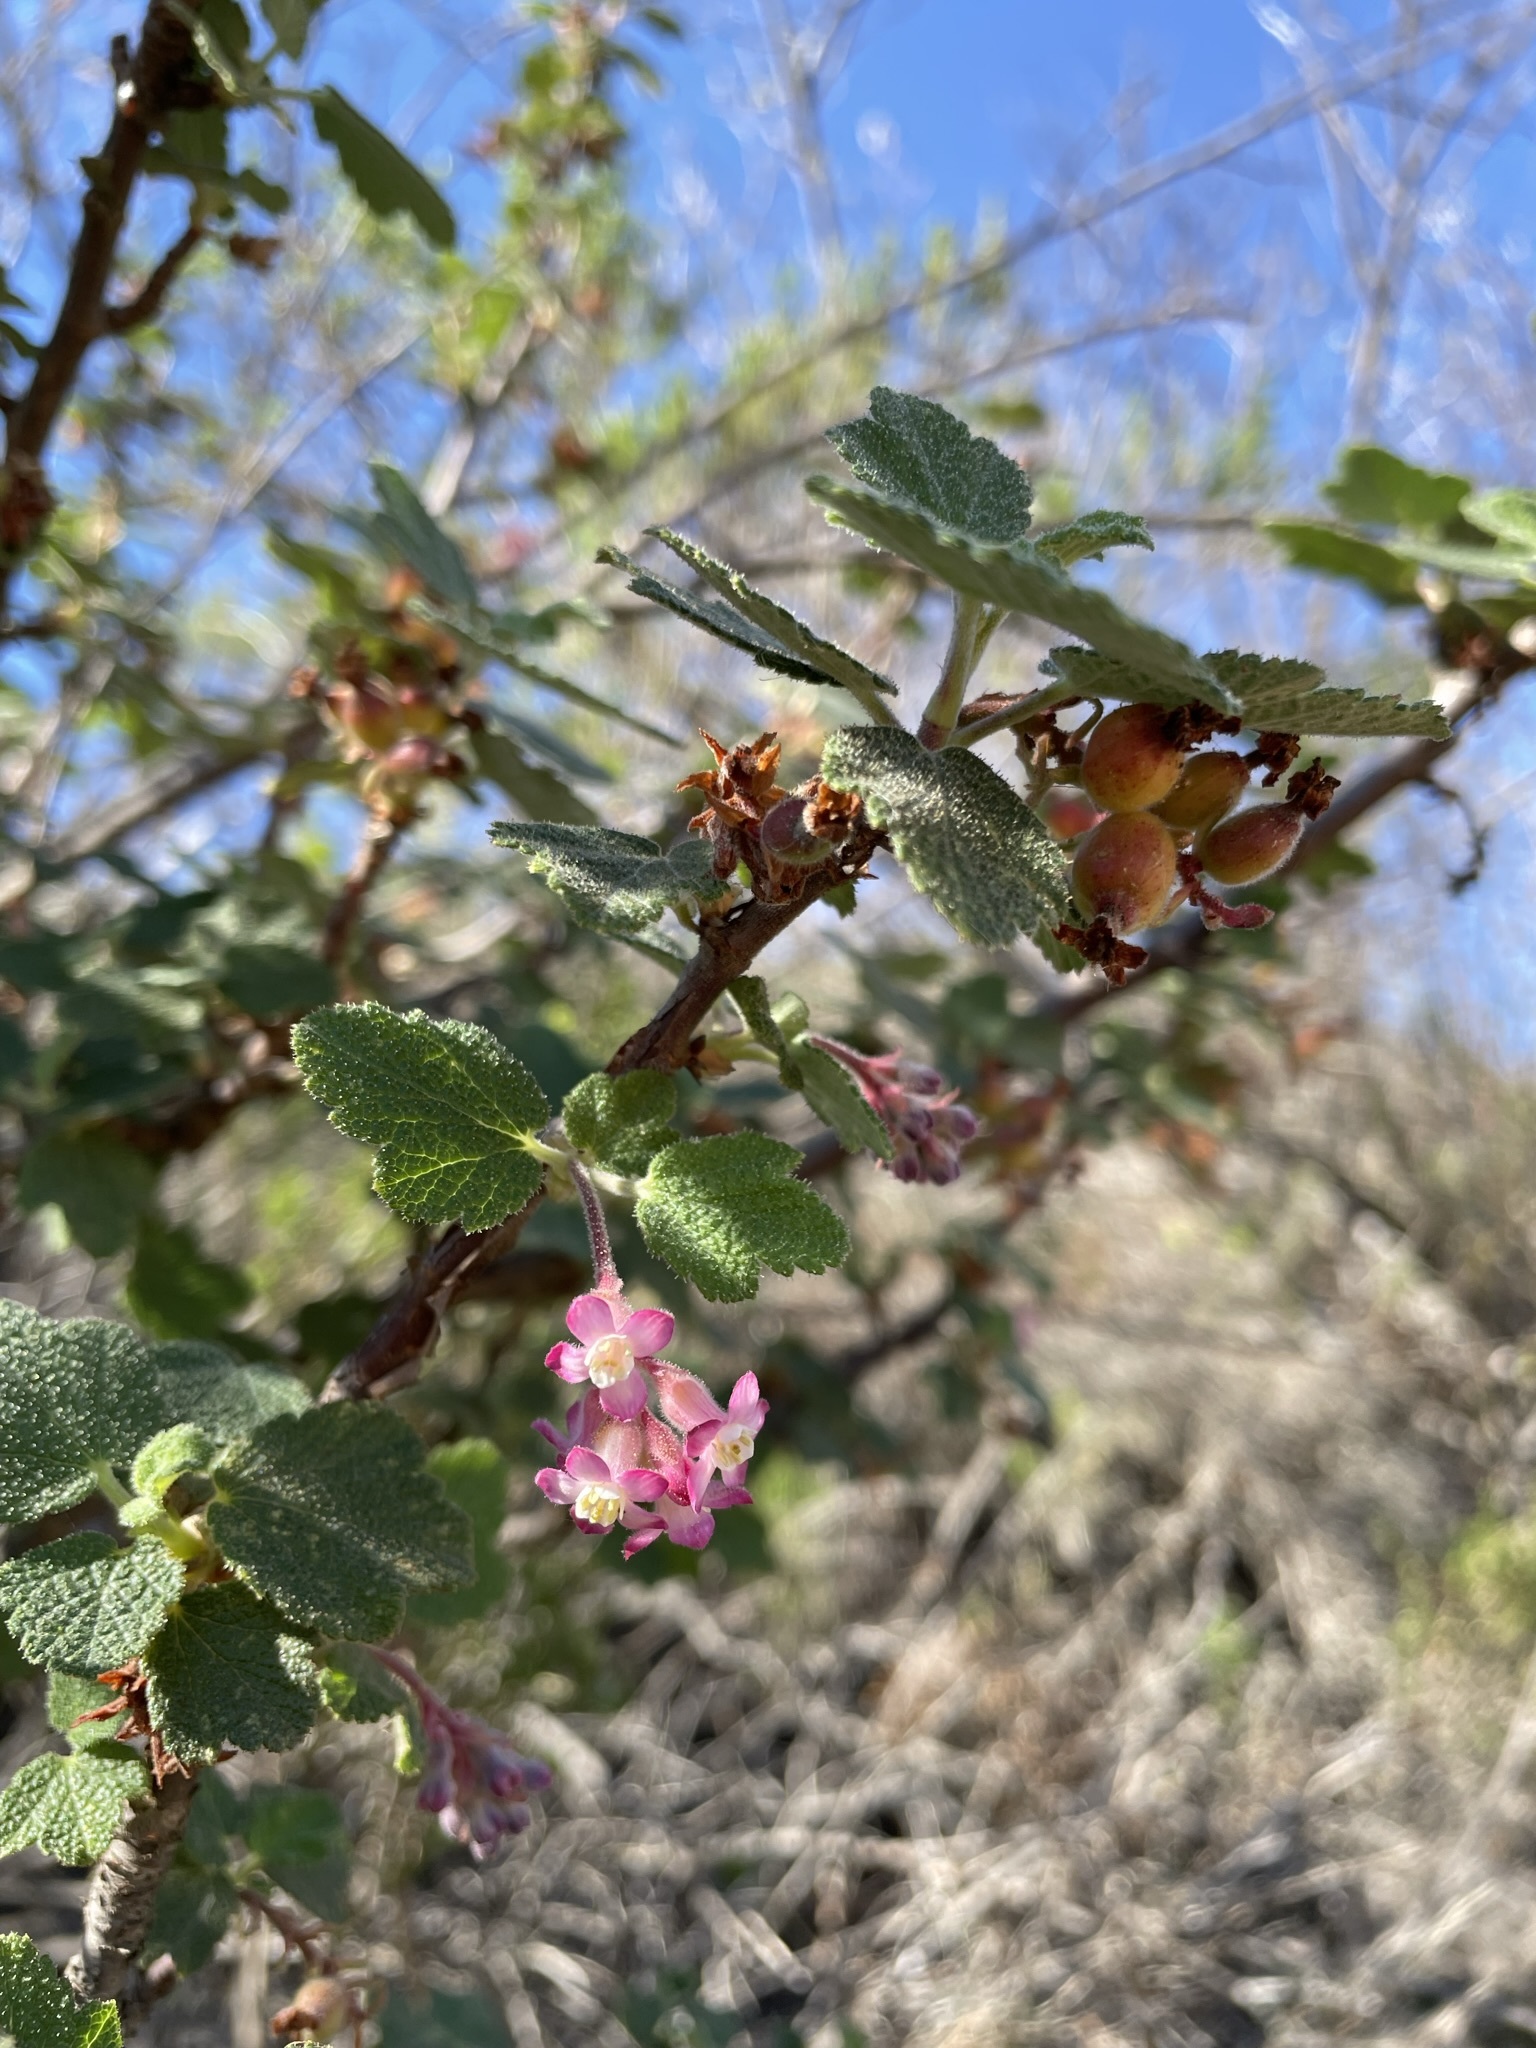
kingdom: Plantae
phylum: Tracheophyta
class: Magnoliopsida
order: Saxifragales
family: Grossulariaceae
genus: Ribes
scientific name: Ribes malvaceum
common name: Chaparral currant
